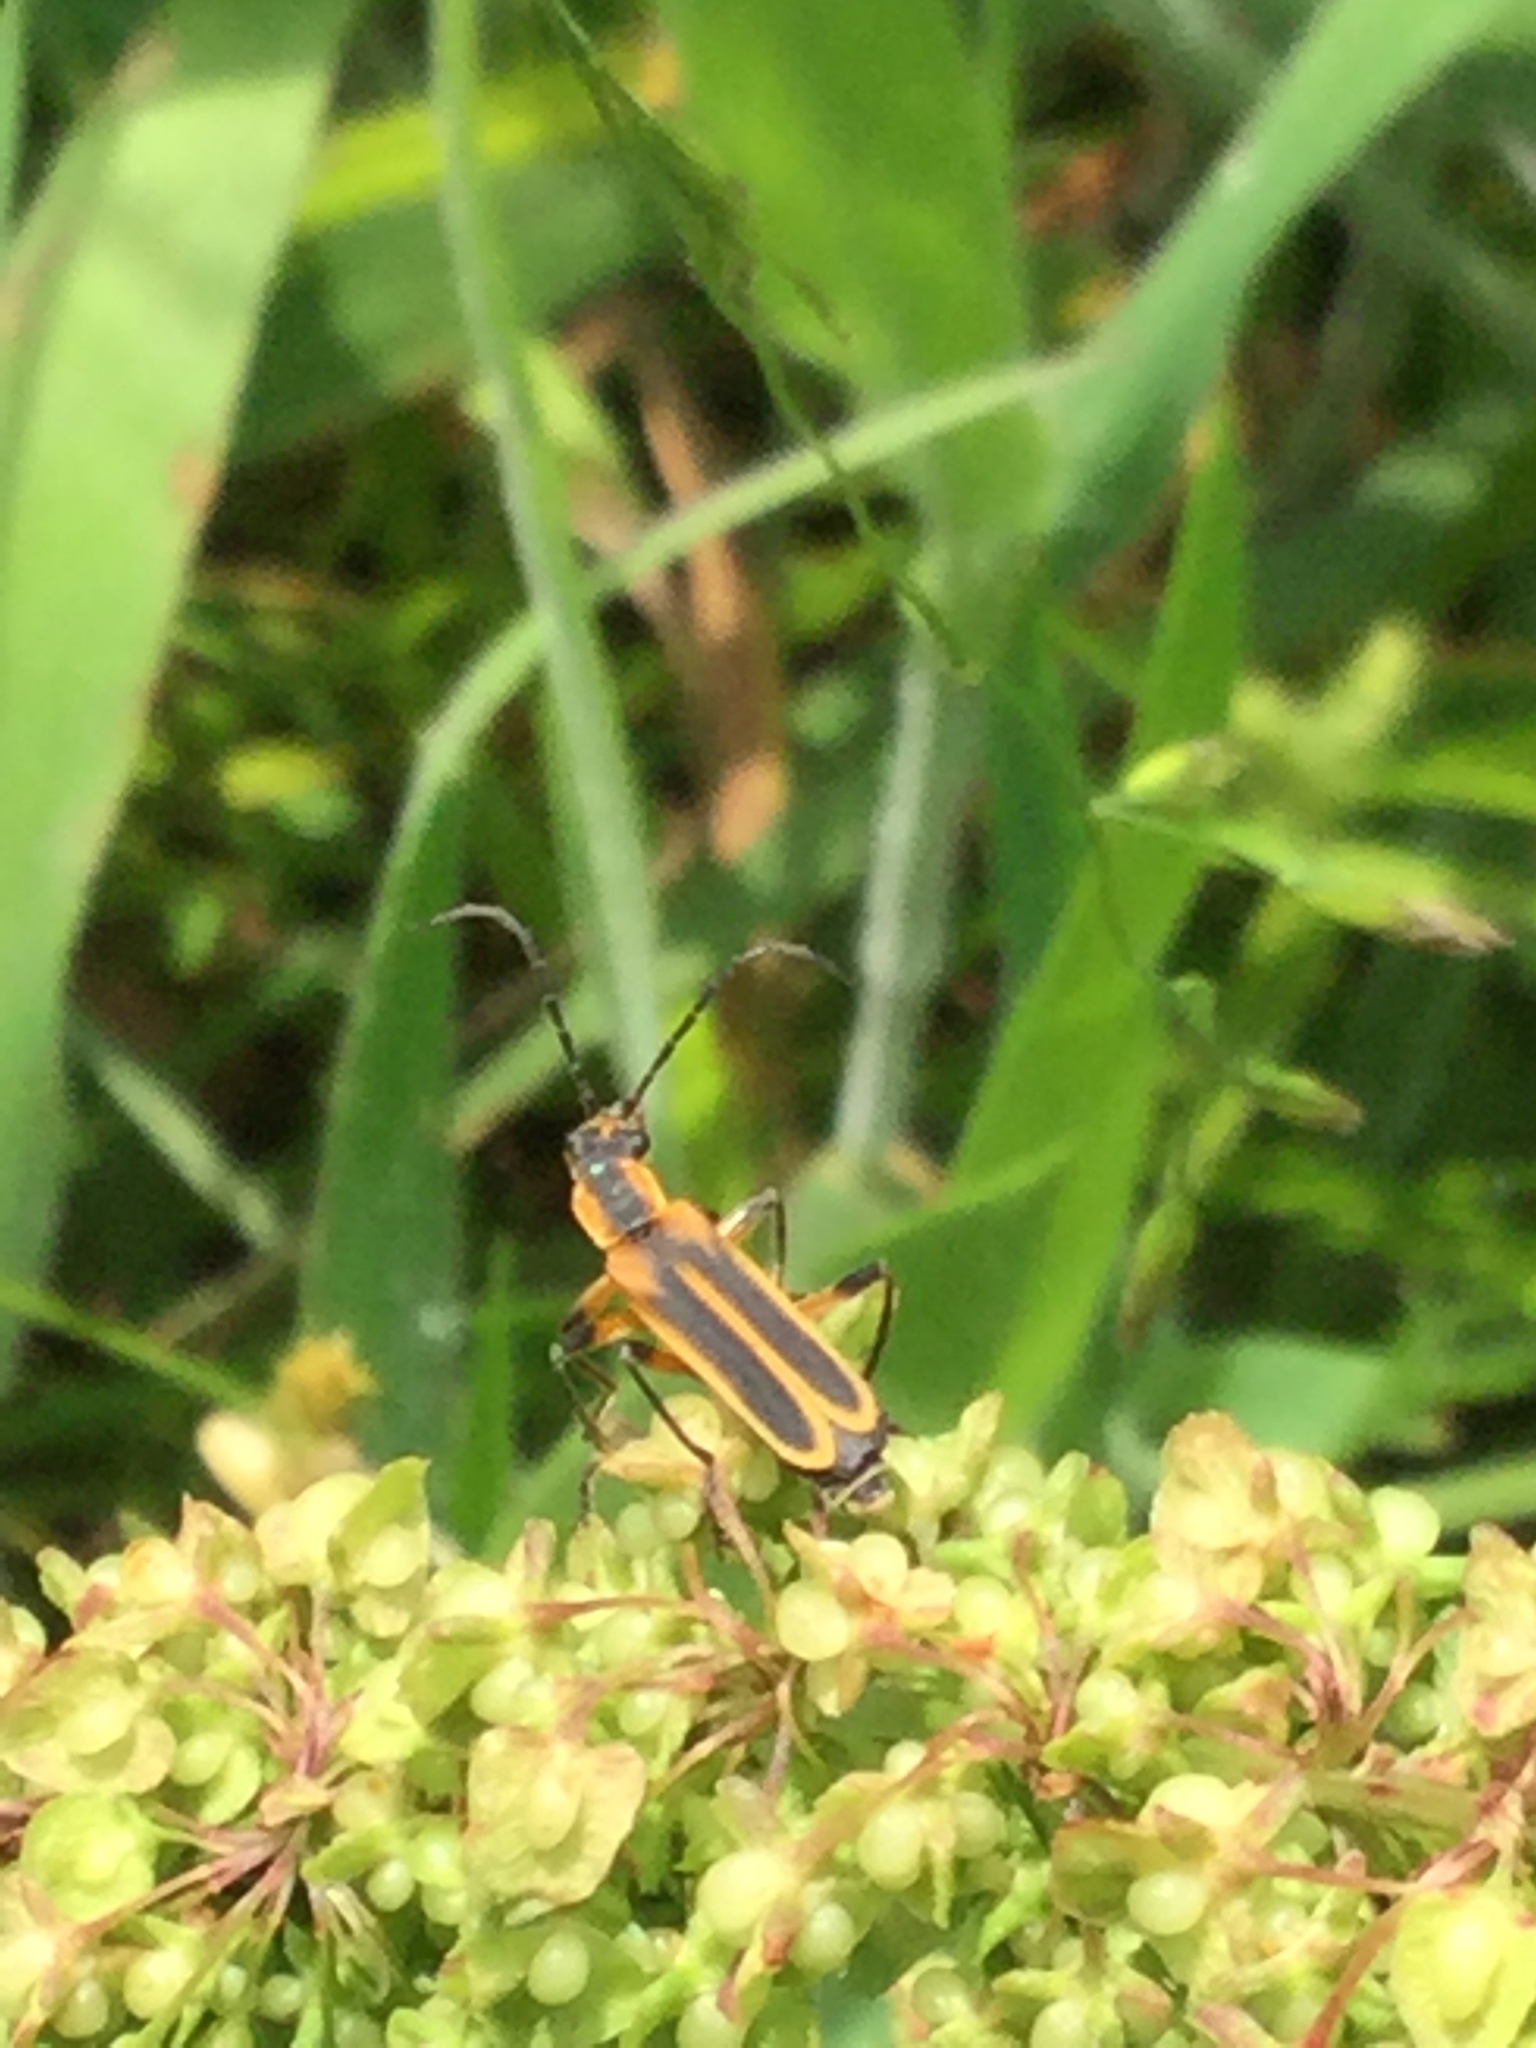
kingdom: Animalia
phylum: Arthropoda
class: Insecta
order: Coleoptera
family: Cantharidae
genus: Chauliognathus
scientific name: Chauliognathus marginatus
